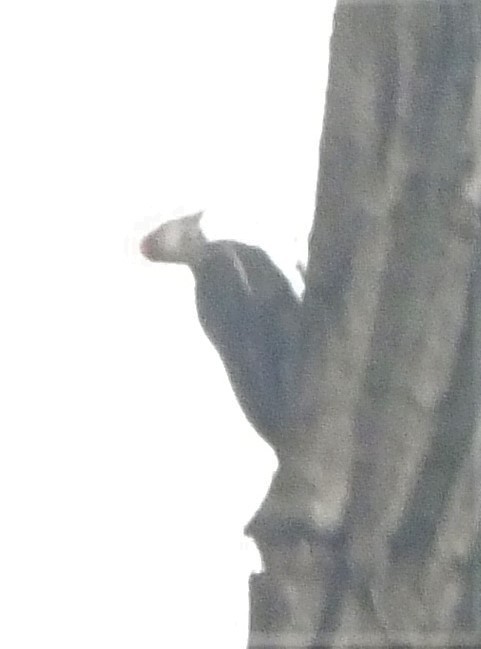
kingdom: Animalia
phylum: Chordata
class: Aves
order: Piciformes
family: Picidae
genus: Dryocopus
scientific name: Dryocopus pileatus
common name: Pileated woodpecker
